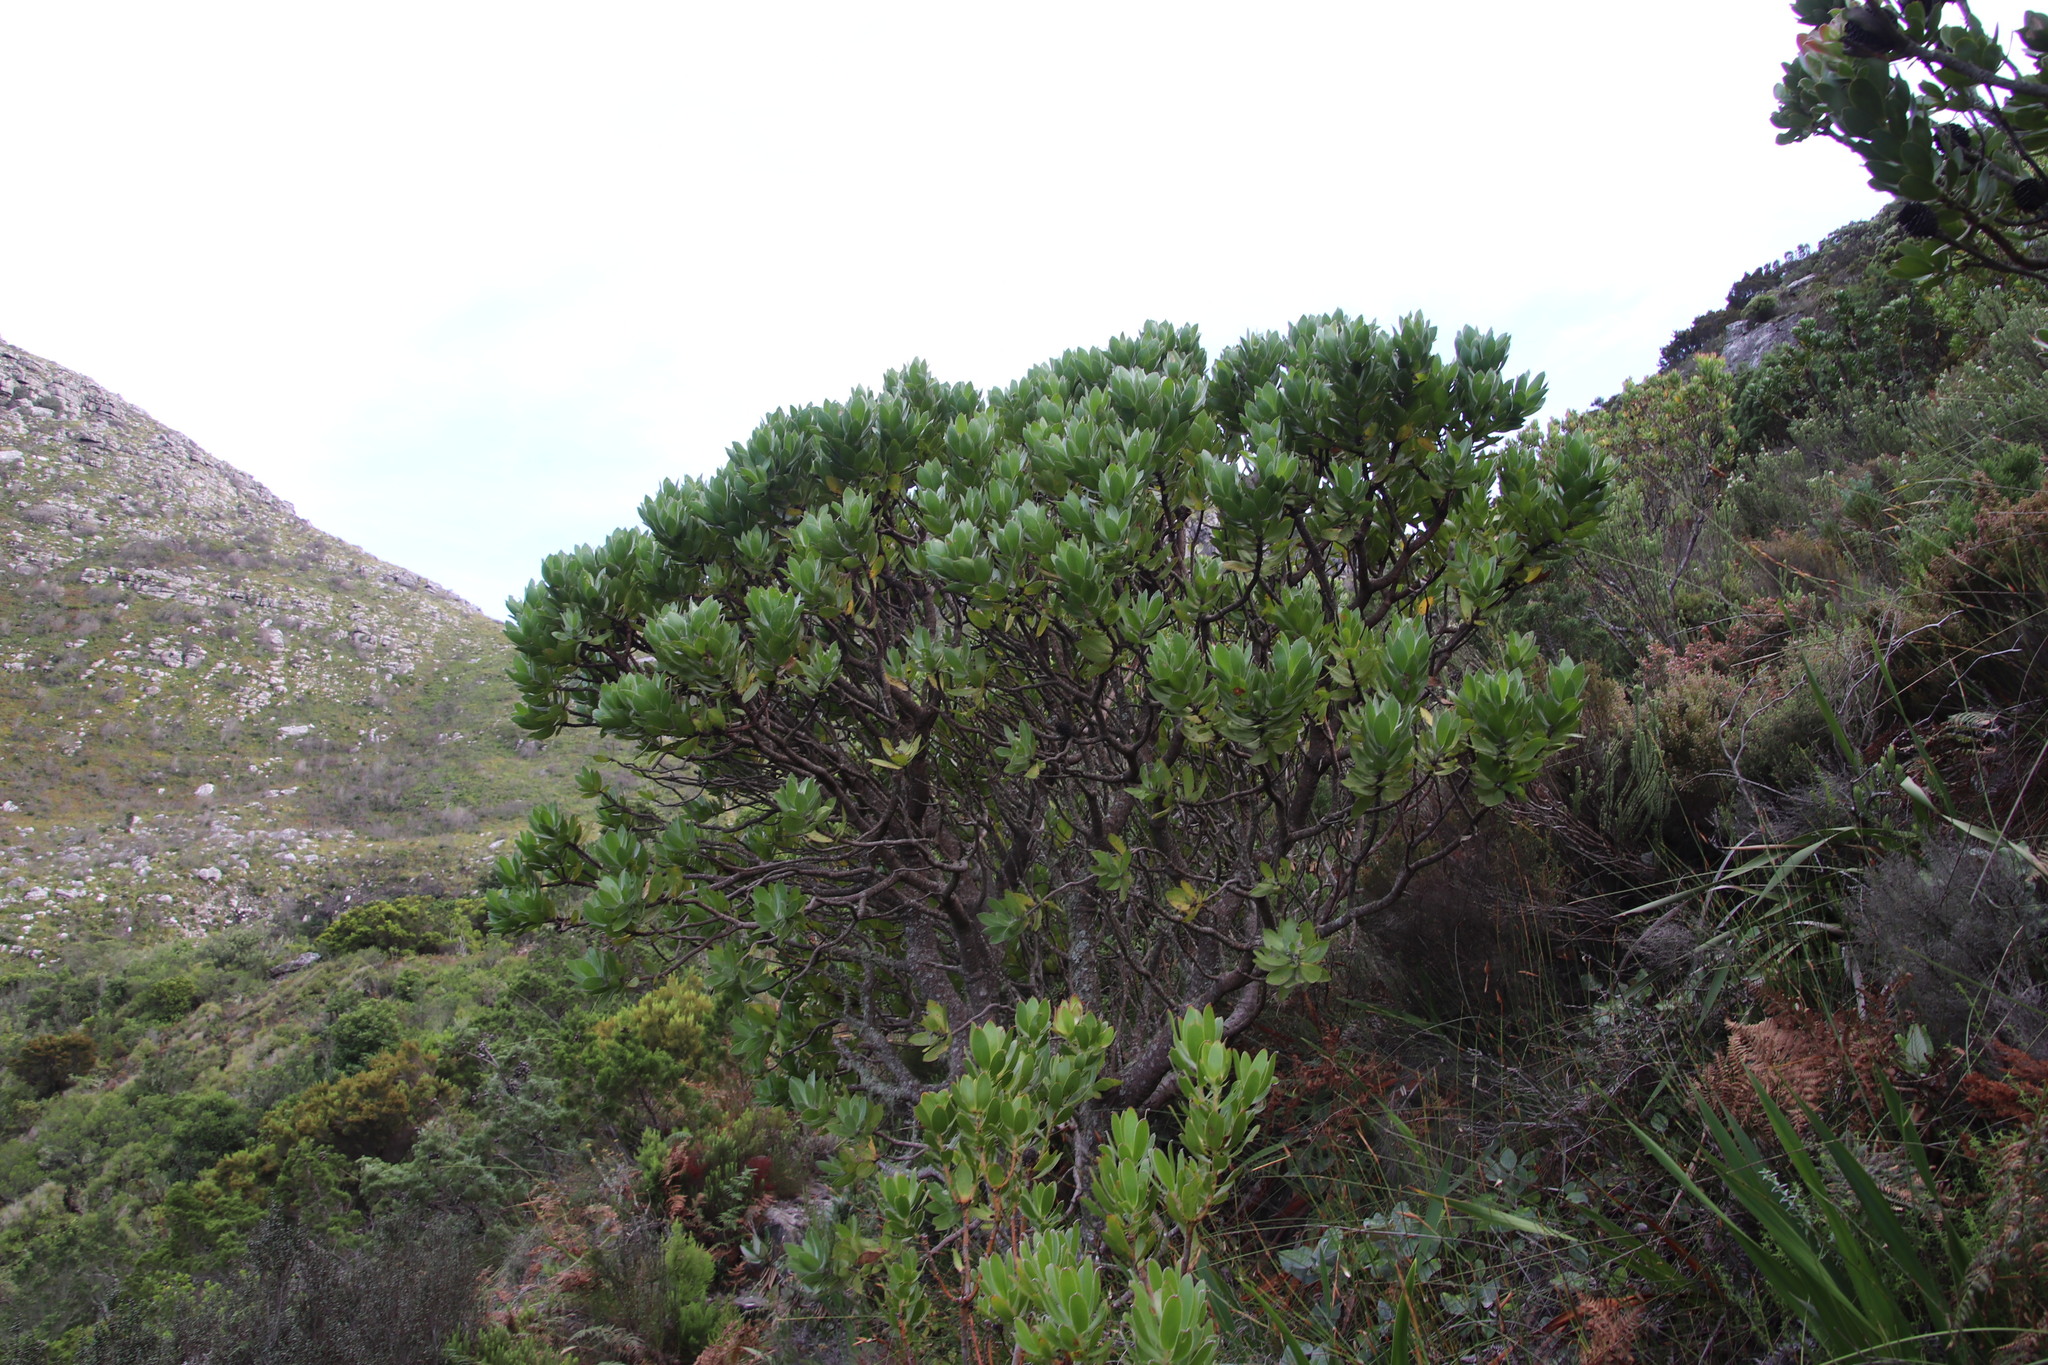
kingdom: Plantae
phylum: Tracheophyta
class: Magnoliopsida
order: Proteales
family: Proteaceae
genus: Leucospermum
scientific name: Leucospermum conocarpodendron
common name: Tree pincushion
